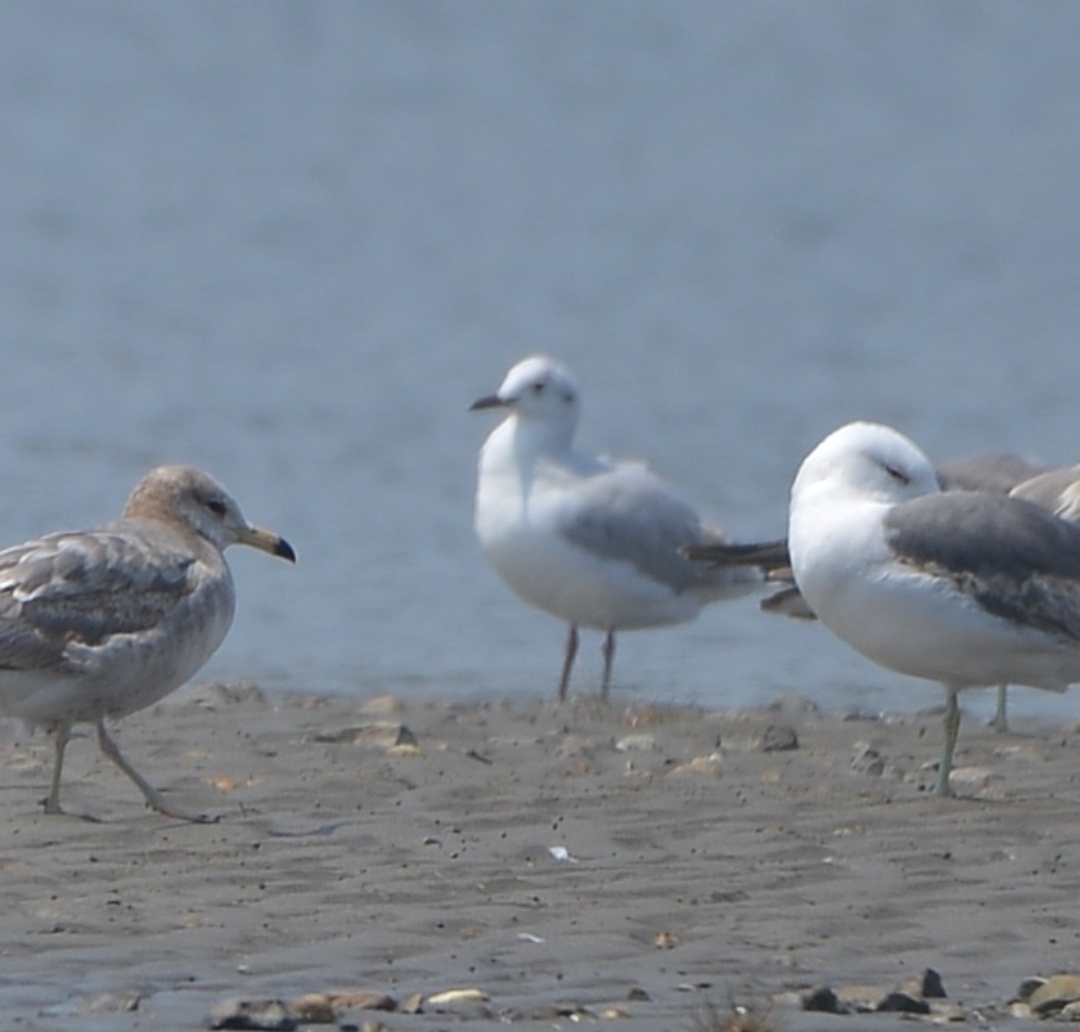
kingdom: Animalia
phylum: Chordata
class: Aves
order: Charadriiformes
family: Laridae
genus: Chroicocephalus
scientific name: Chroicocephalus ridibundus
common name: Black-headed gull
